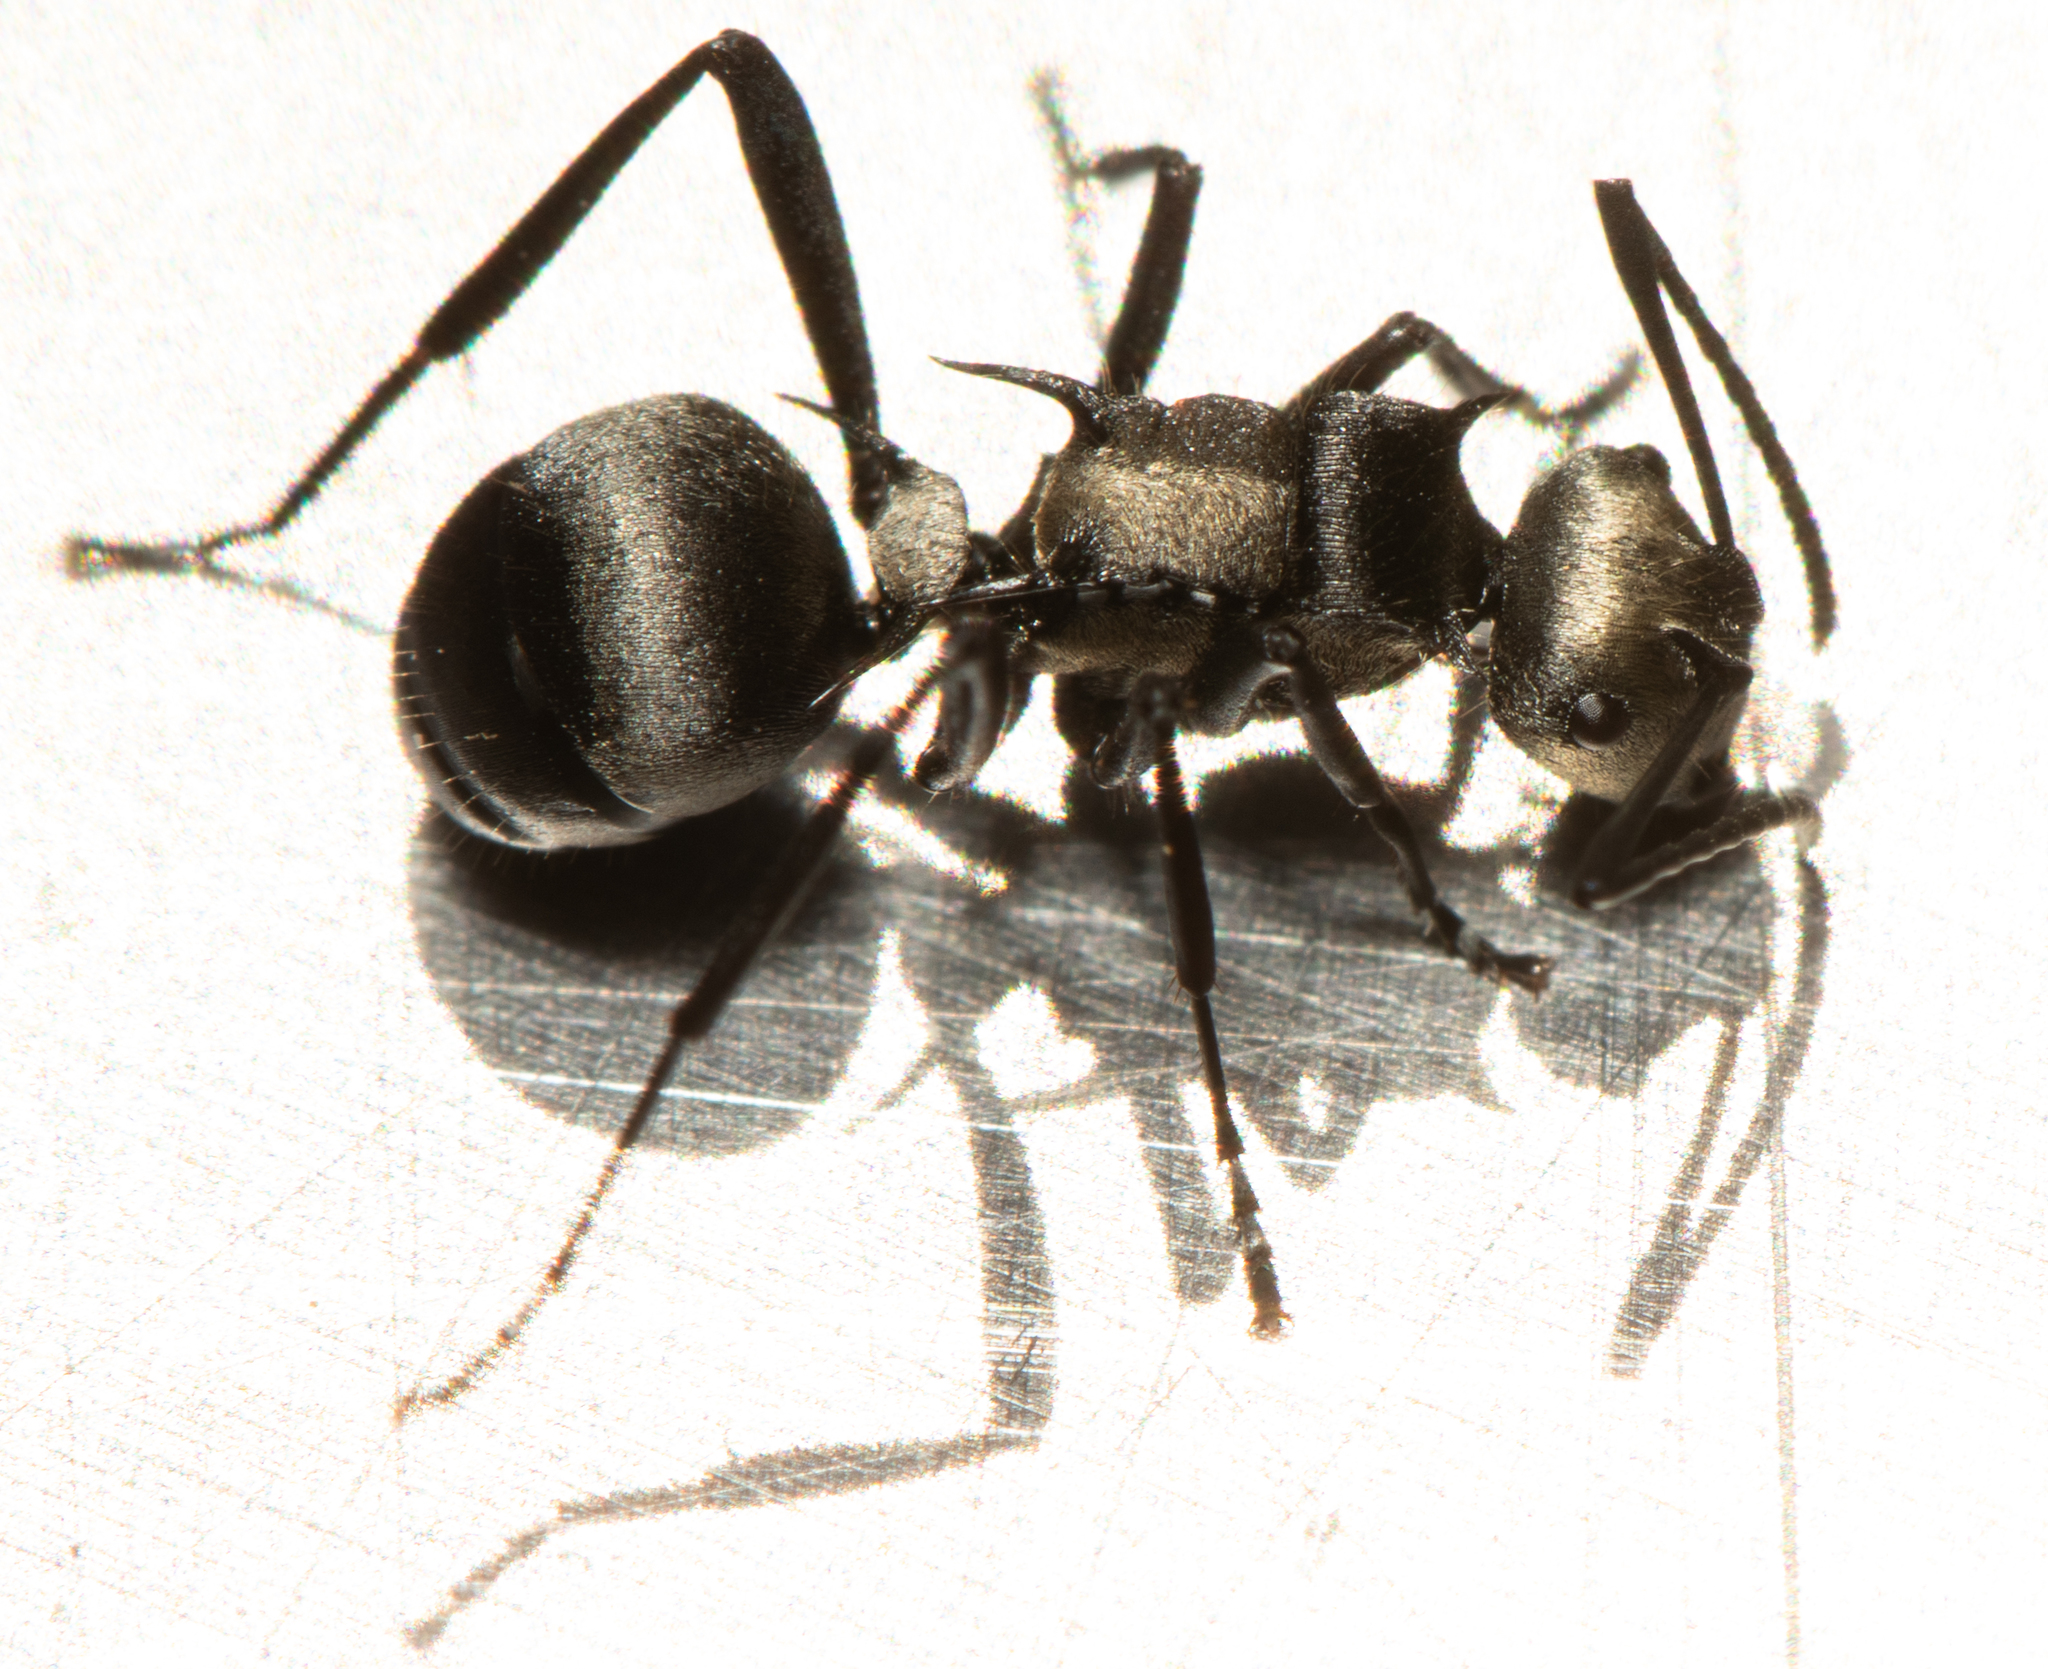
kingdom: Animalia
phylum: Arthropoda
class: Insecta
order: Hymenoptera
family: Formicidae
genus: Polyrhachis
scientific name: Polyrhachis daemeli
